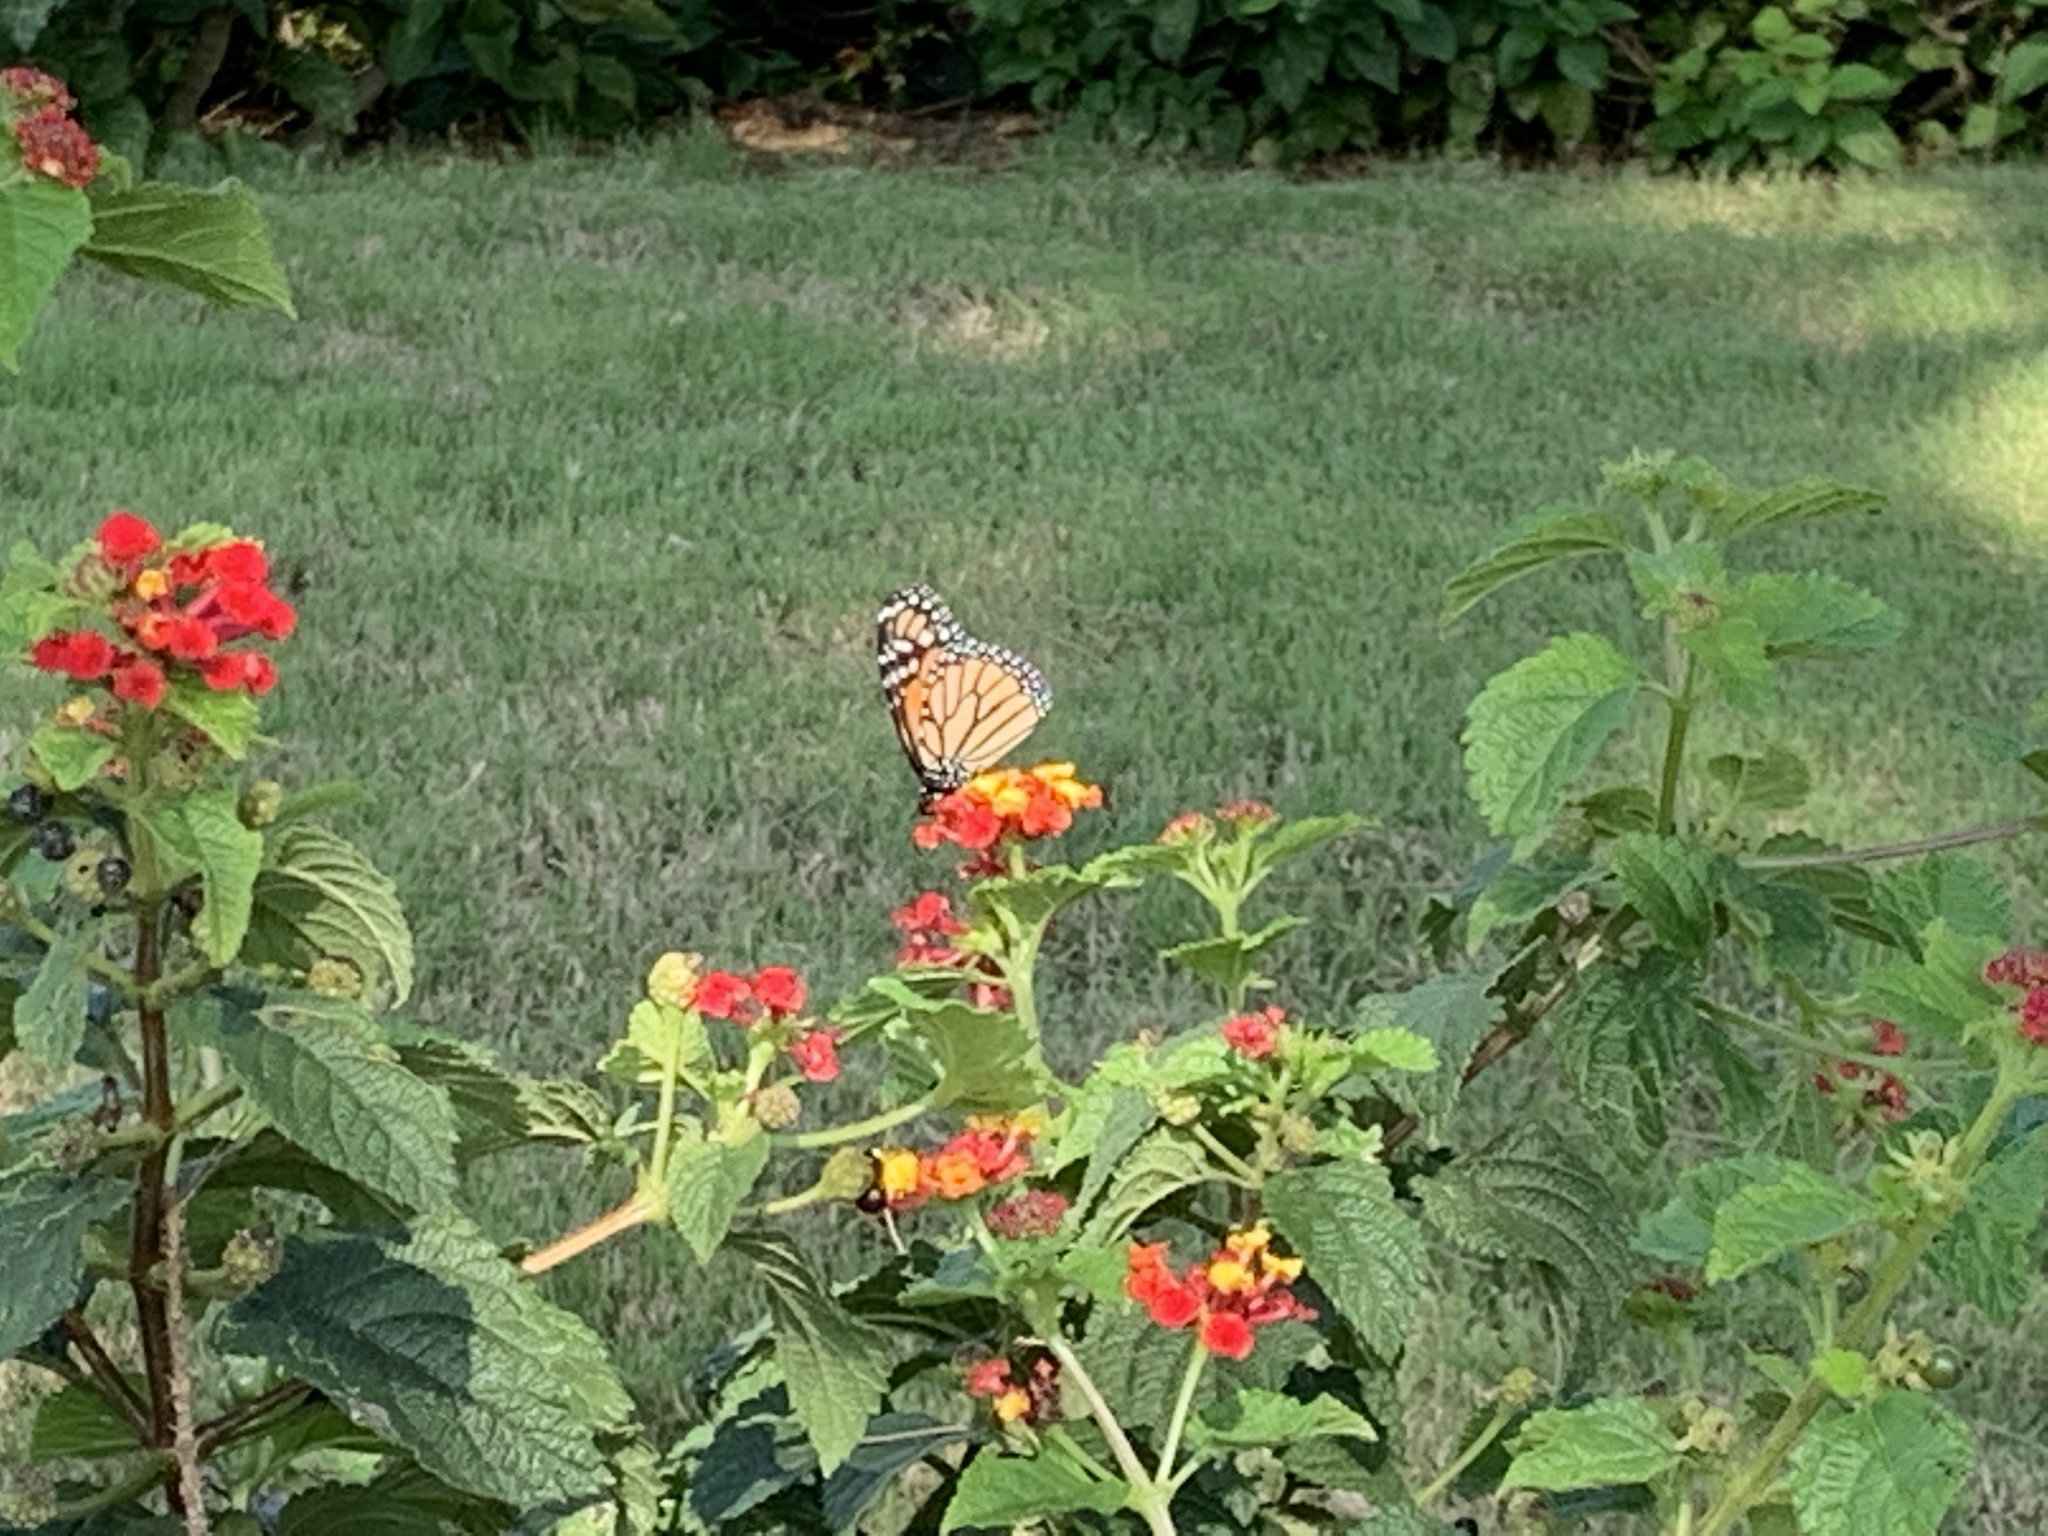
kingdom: Animalia
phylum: Arthropoda
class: Insecta
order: Lepidoptera
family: Nymphalidae
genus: Danaus
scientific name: Danaus plexippus
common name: Monarch
